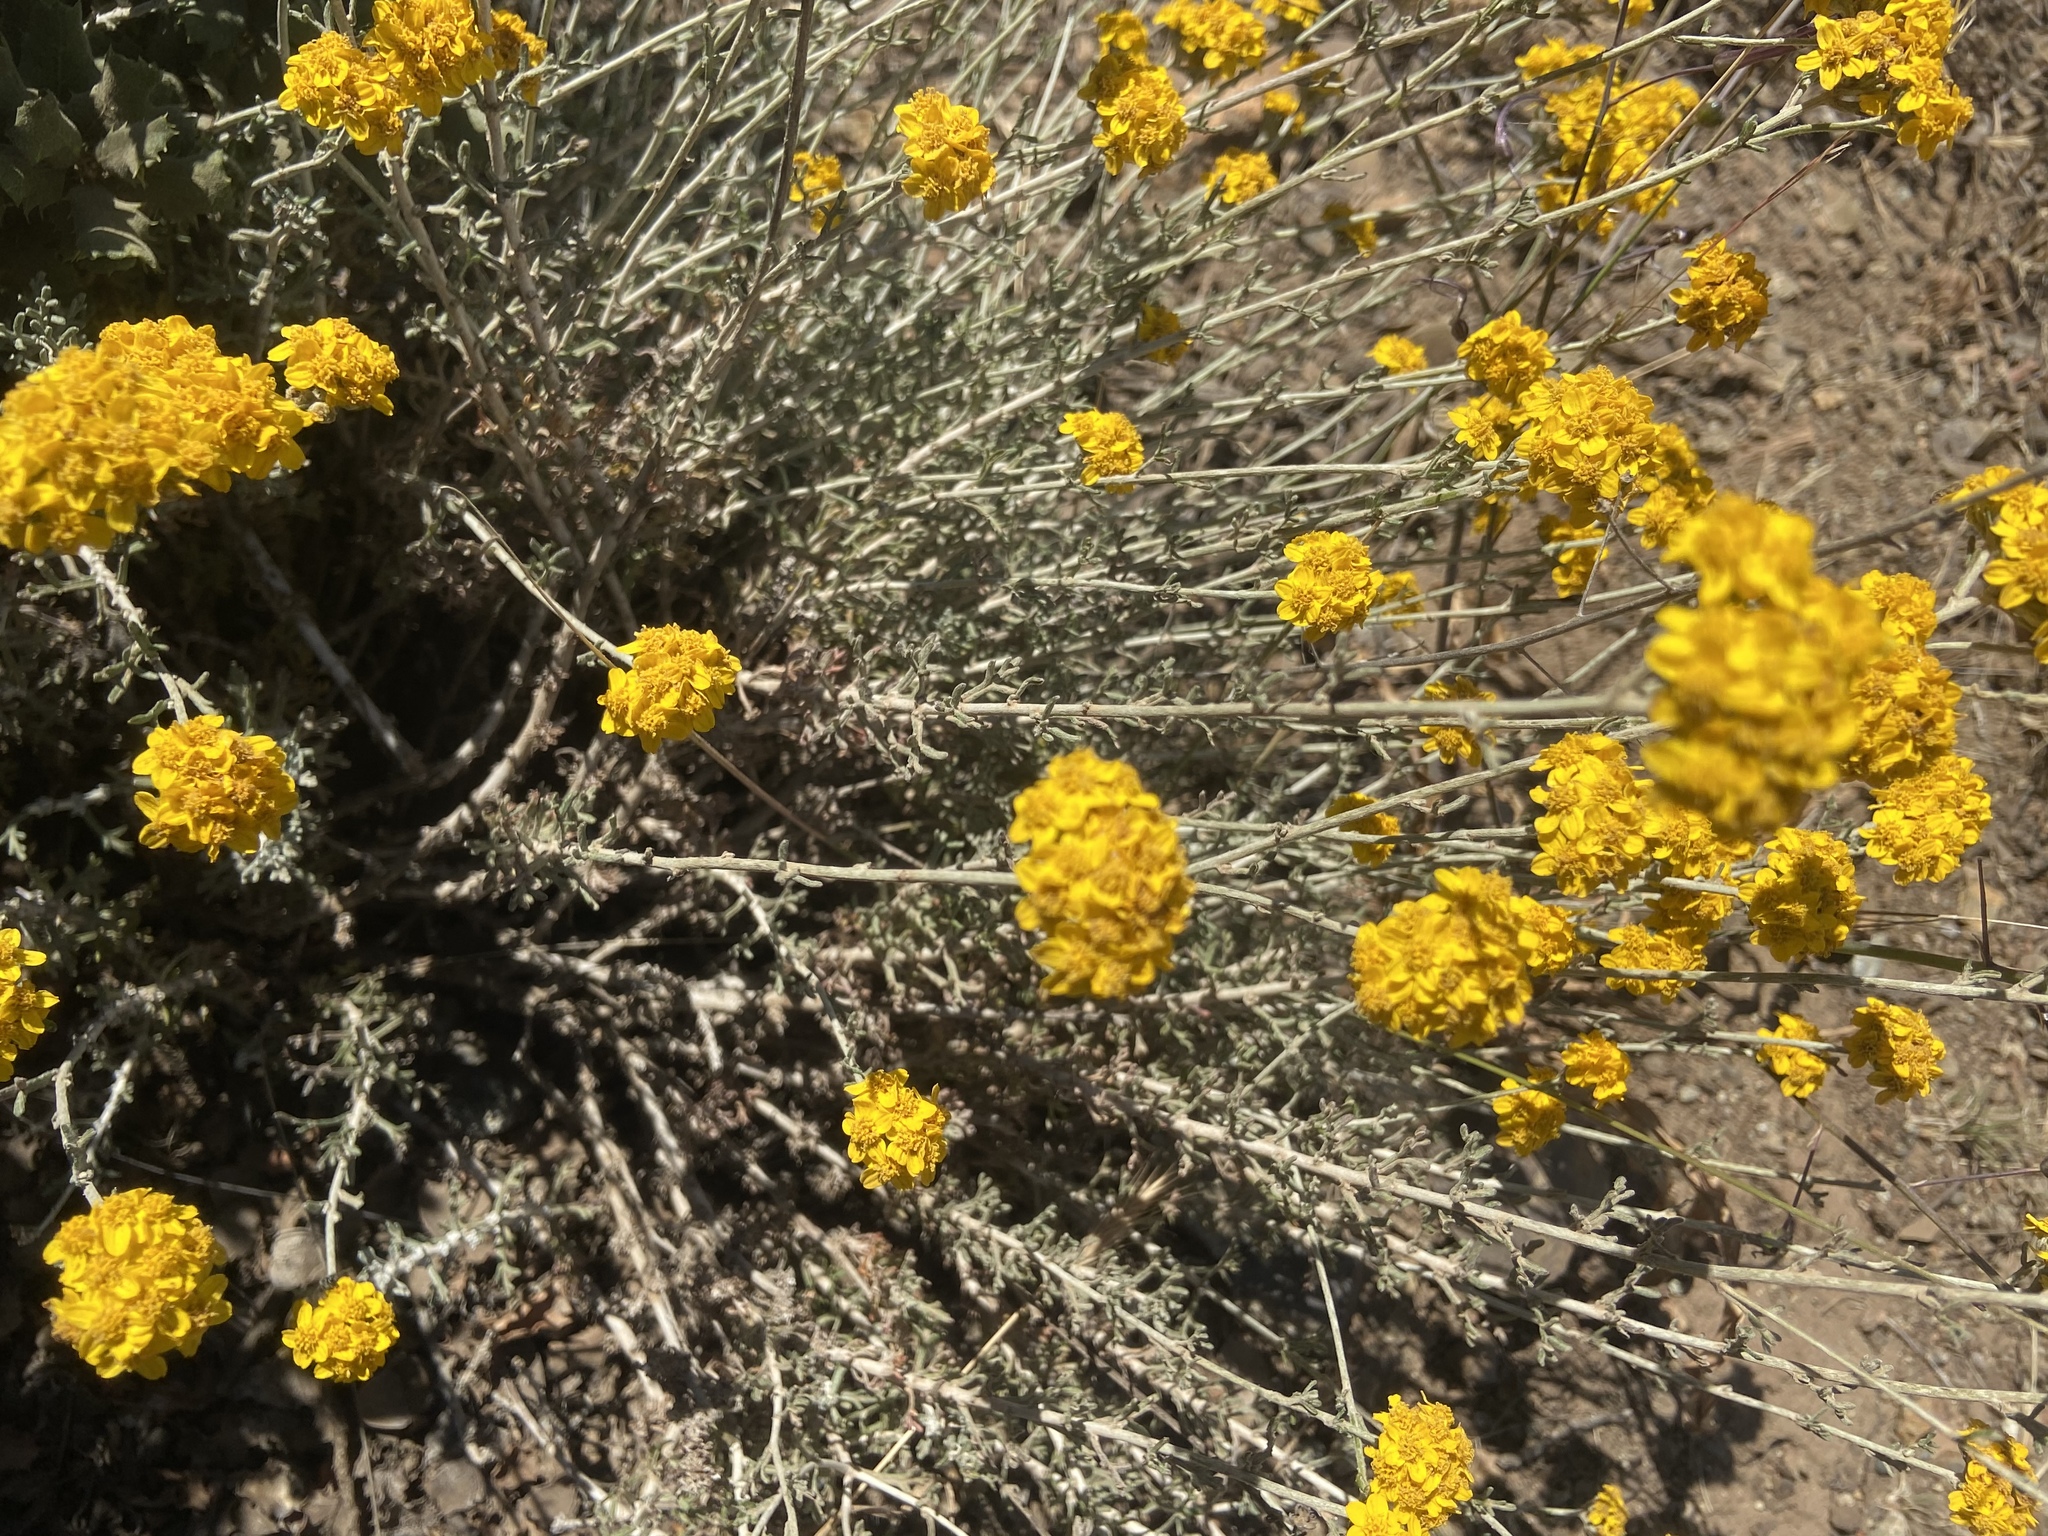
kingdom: Plantae
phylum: Tracheophyta
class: Magnoliopsida
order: Asterales
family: Asteraceae
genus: Eriophyllum
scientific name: Eriophyllum confertiflorum
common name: Golden-yarrow
